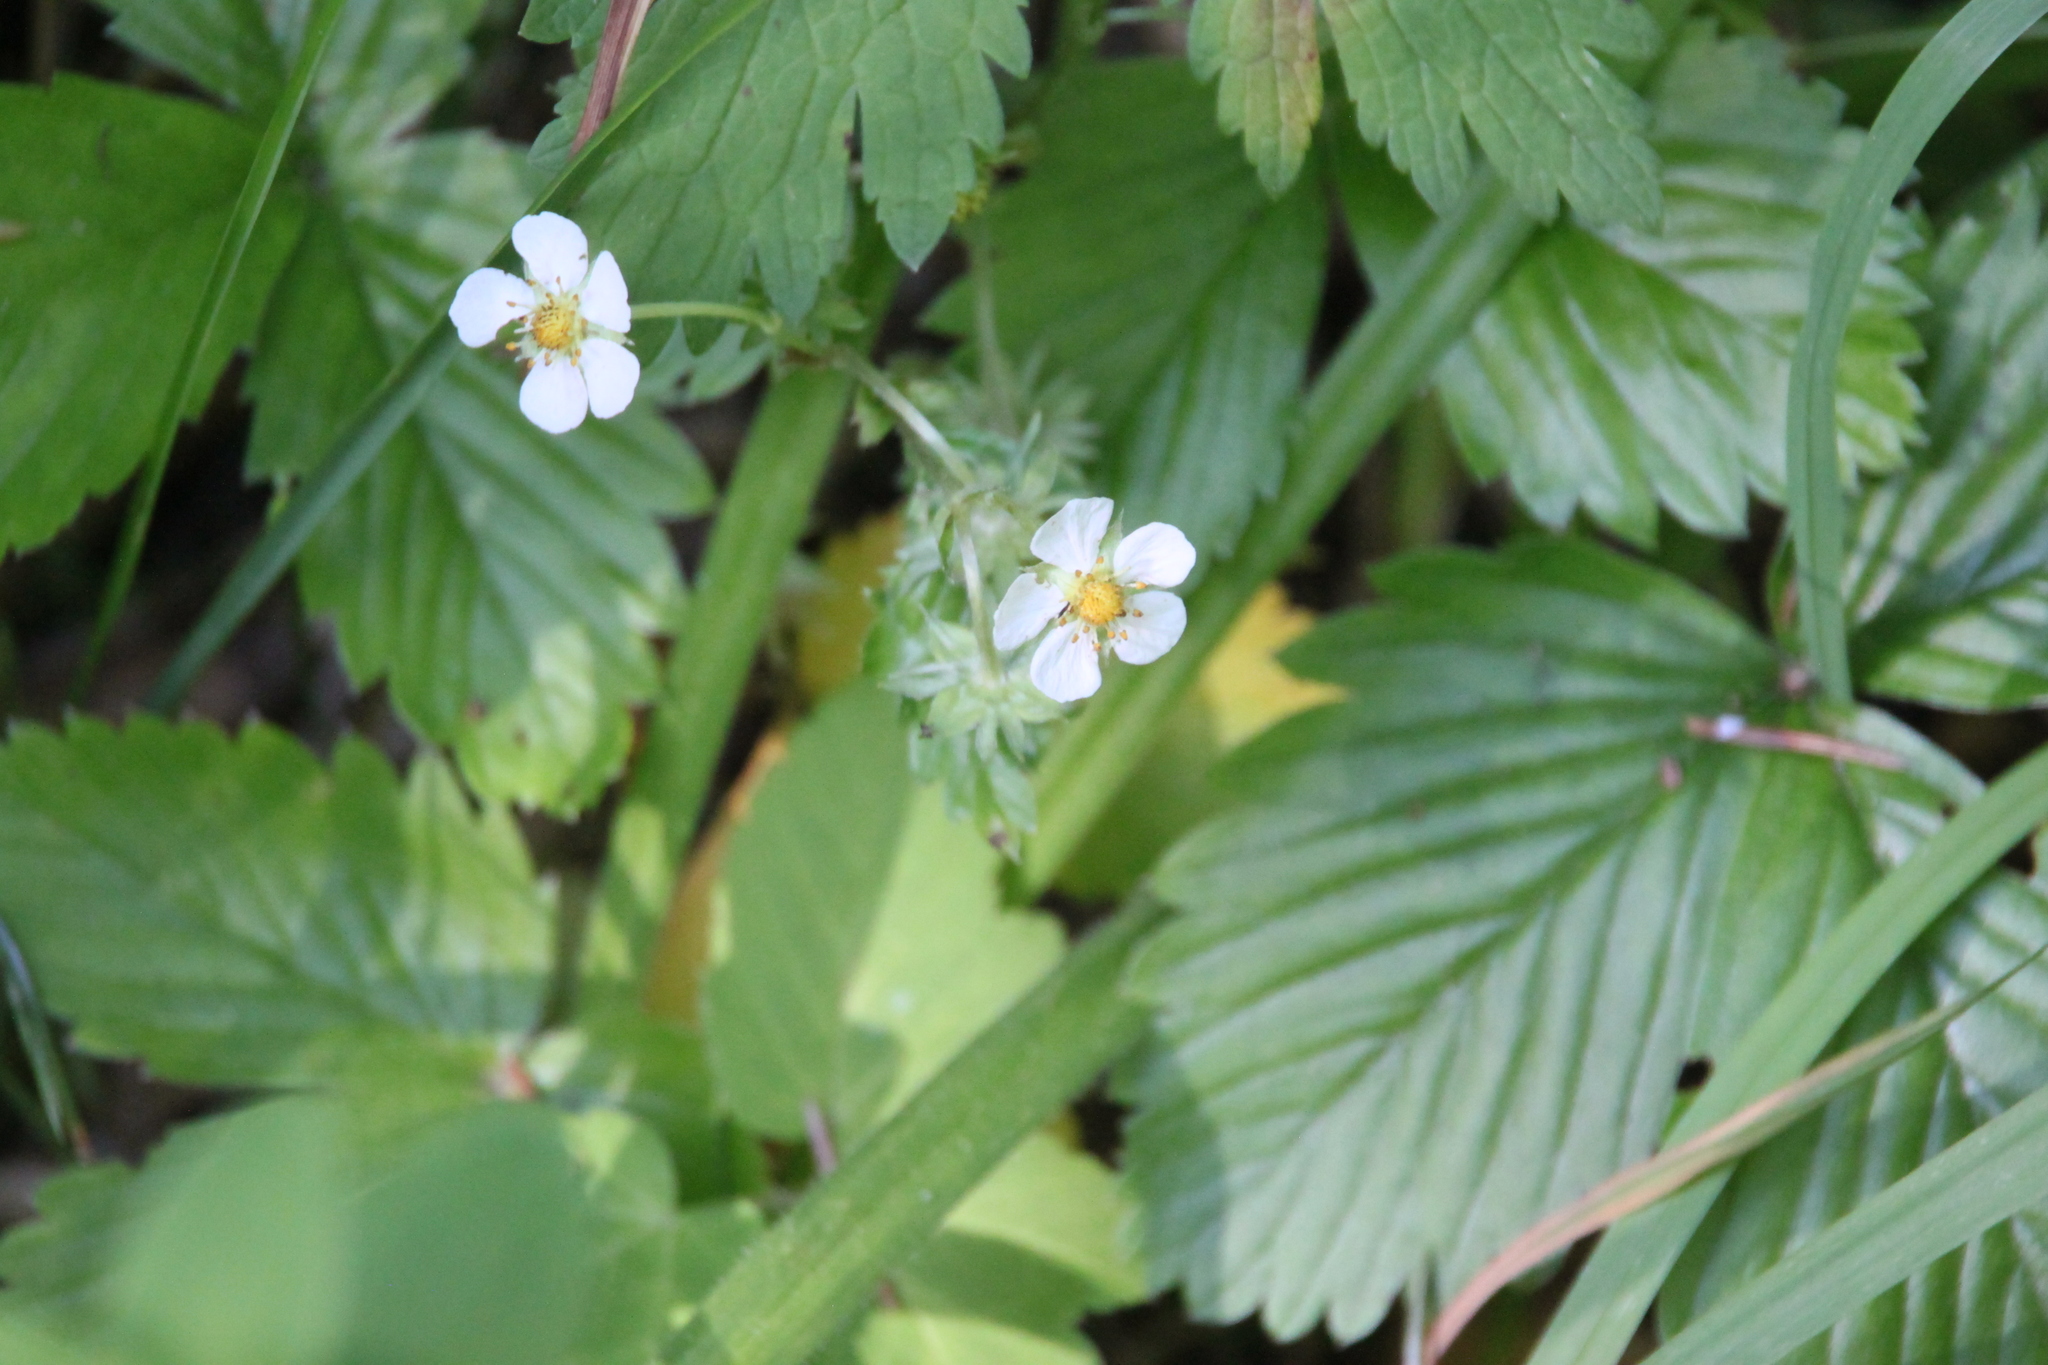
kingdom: Plantae
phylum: Tracheophyta
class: Magnoliopsida
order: Rosales
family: Rosaceae
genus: Fragaria
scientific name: Fragaria vesca
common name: Wild strawberry
